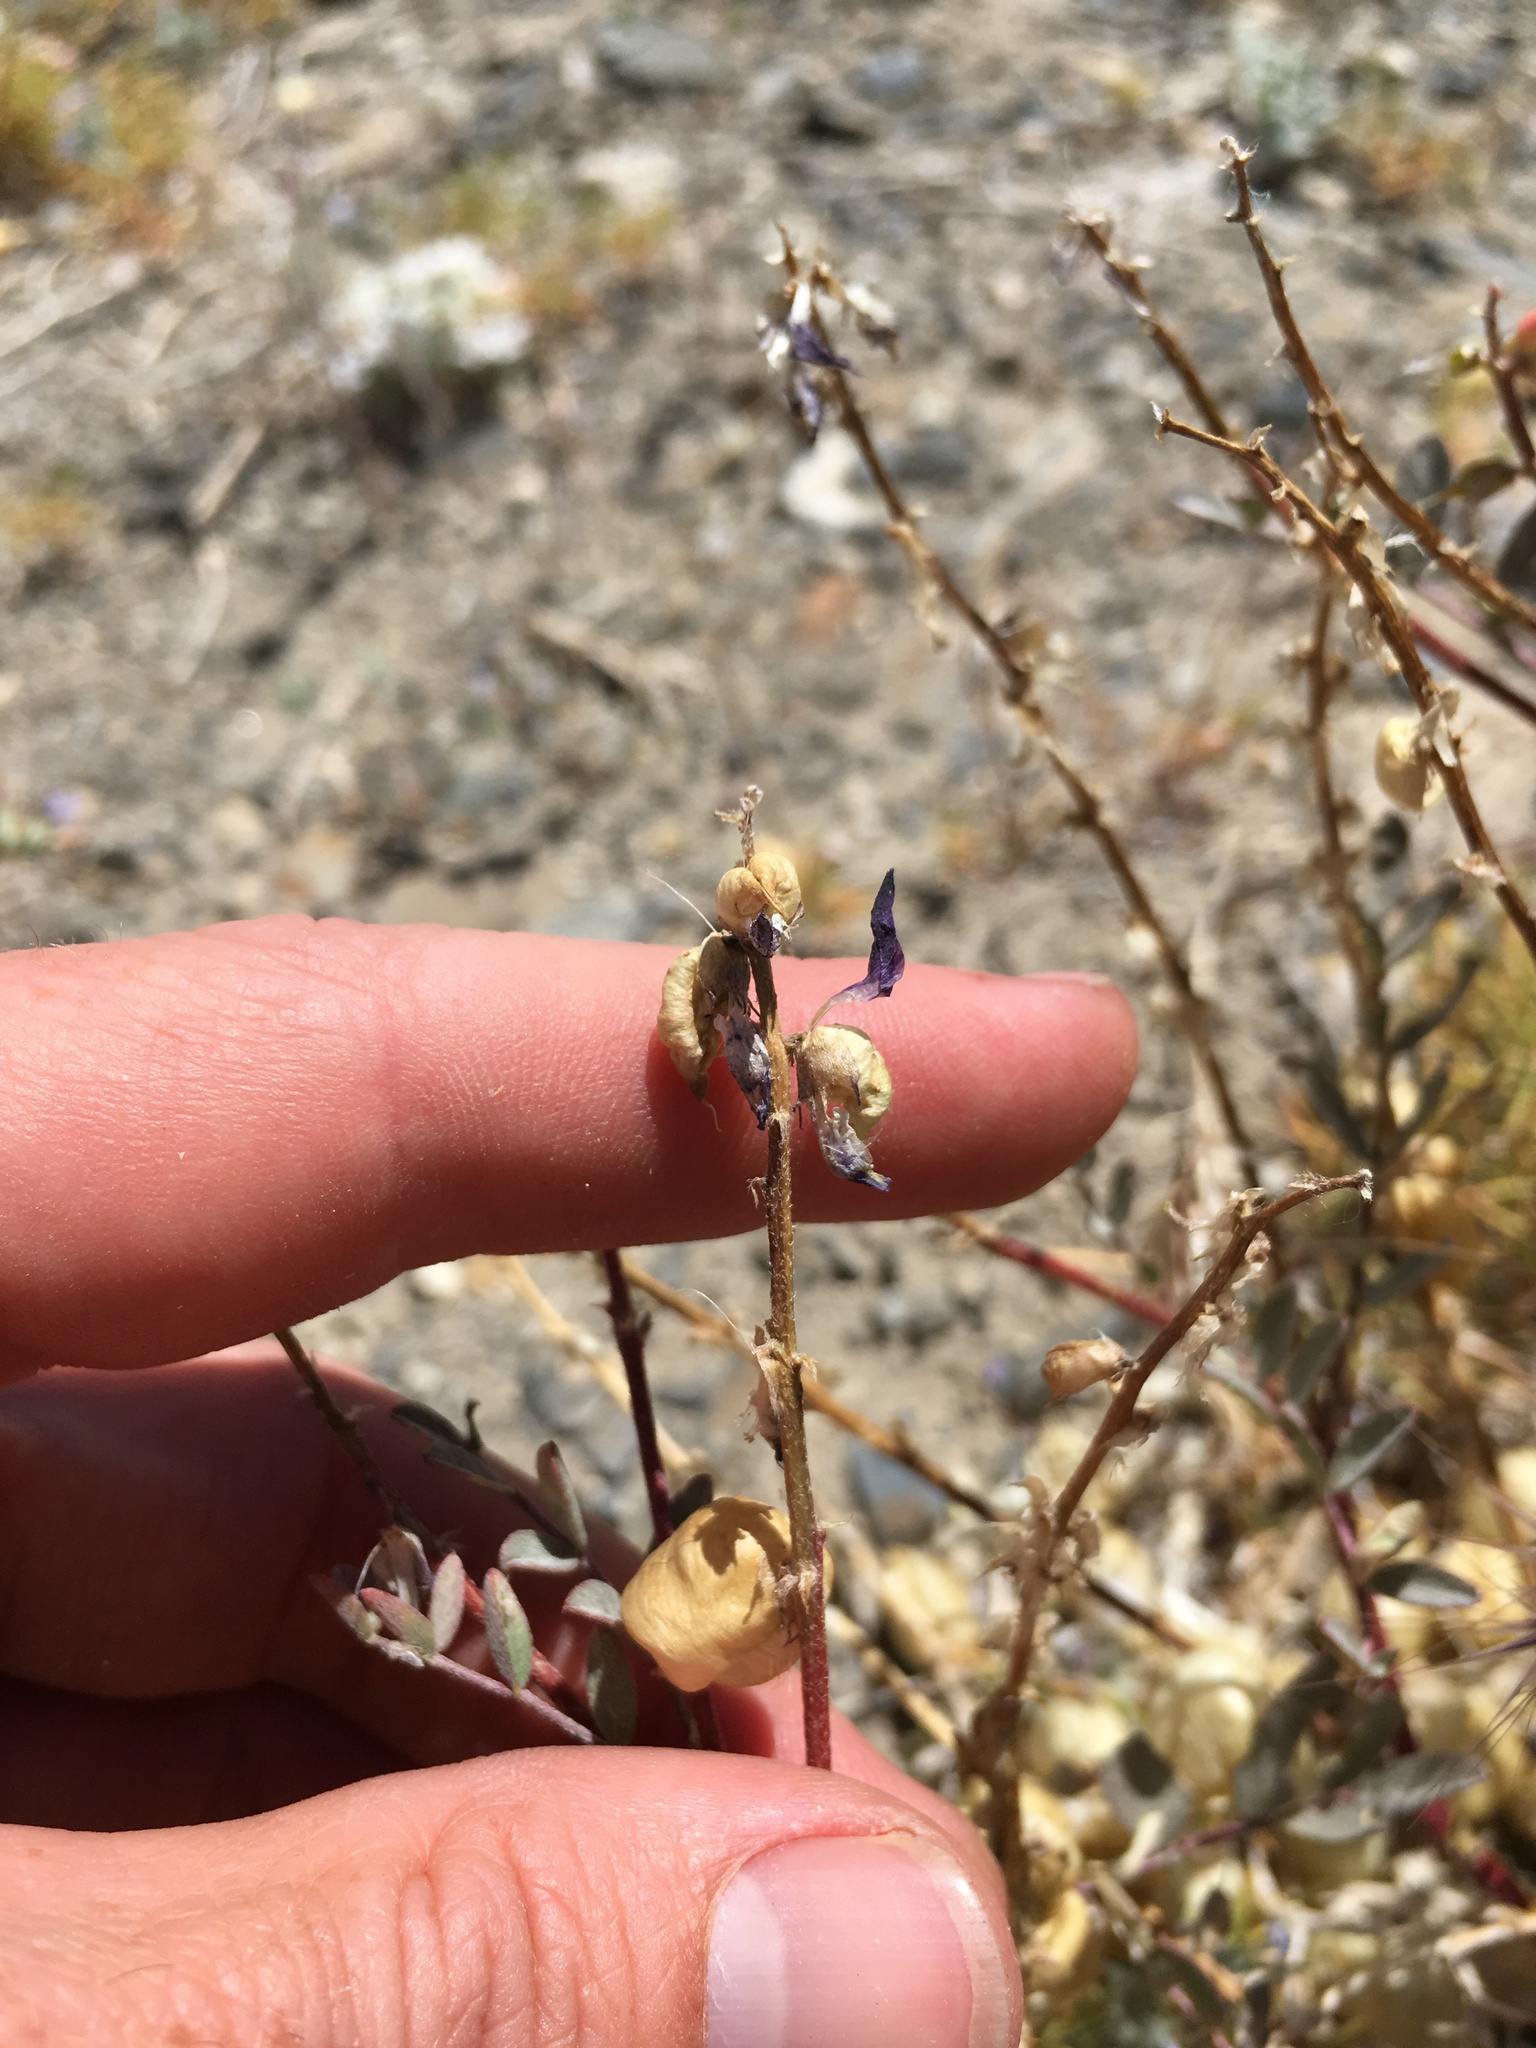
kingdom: Plantae
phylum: Tracheophyta
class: Magnoliopsida
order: Fabales
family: Fabaceae
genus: Astragalus
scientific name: Astragalus lentiginosus
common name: Freckled milkvetch
